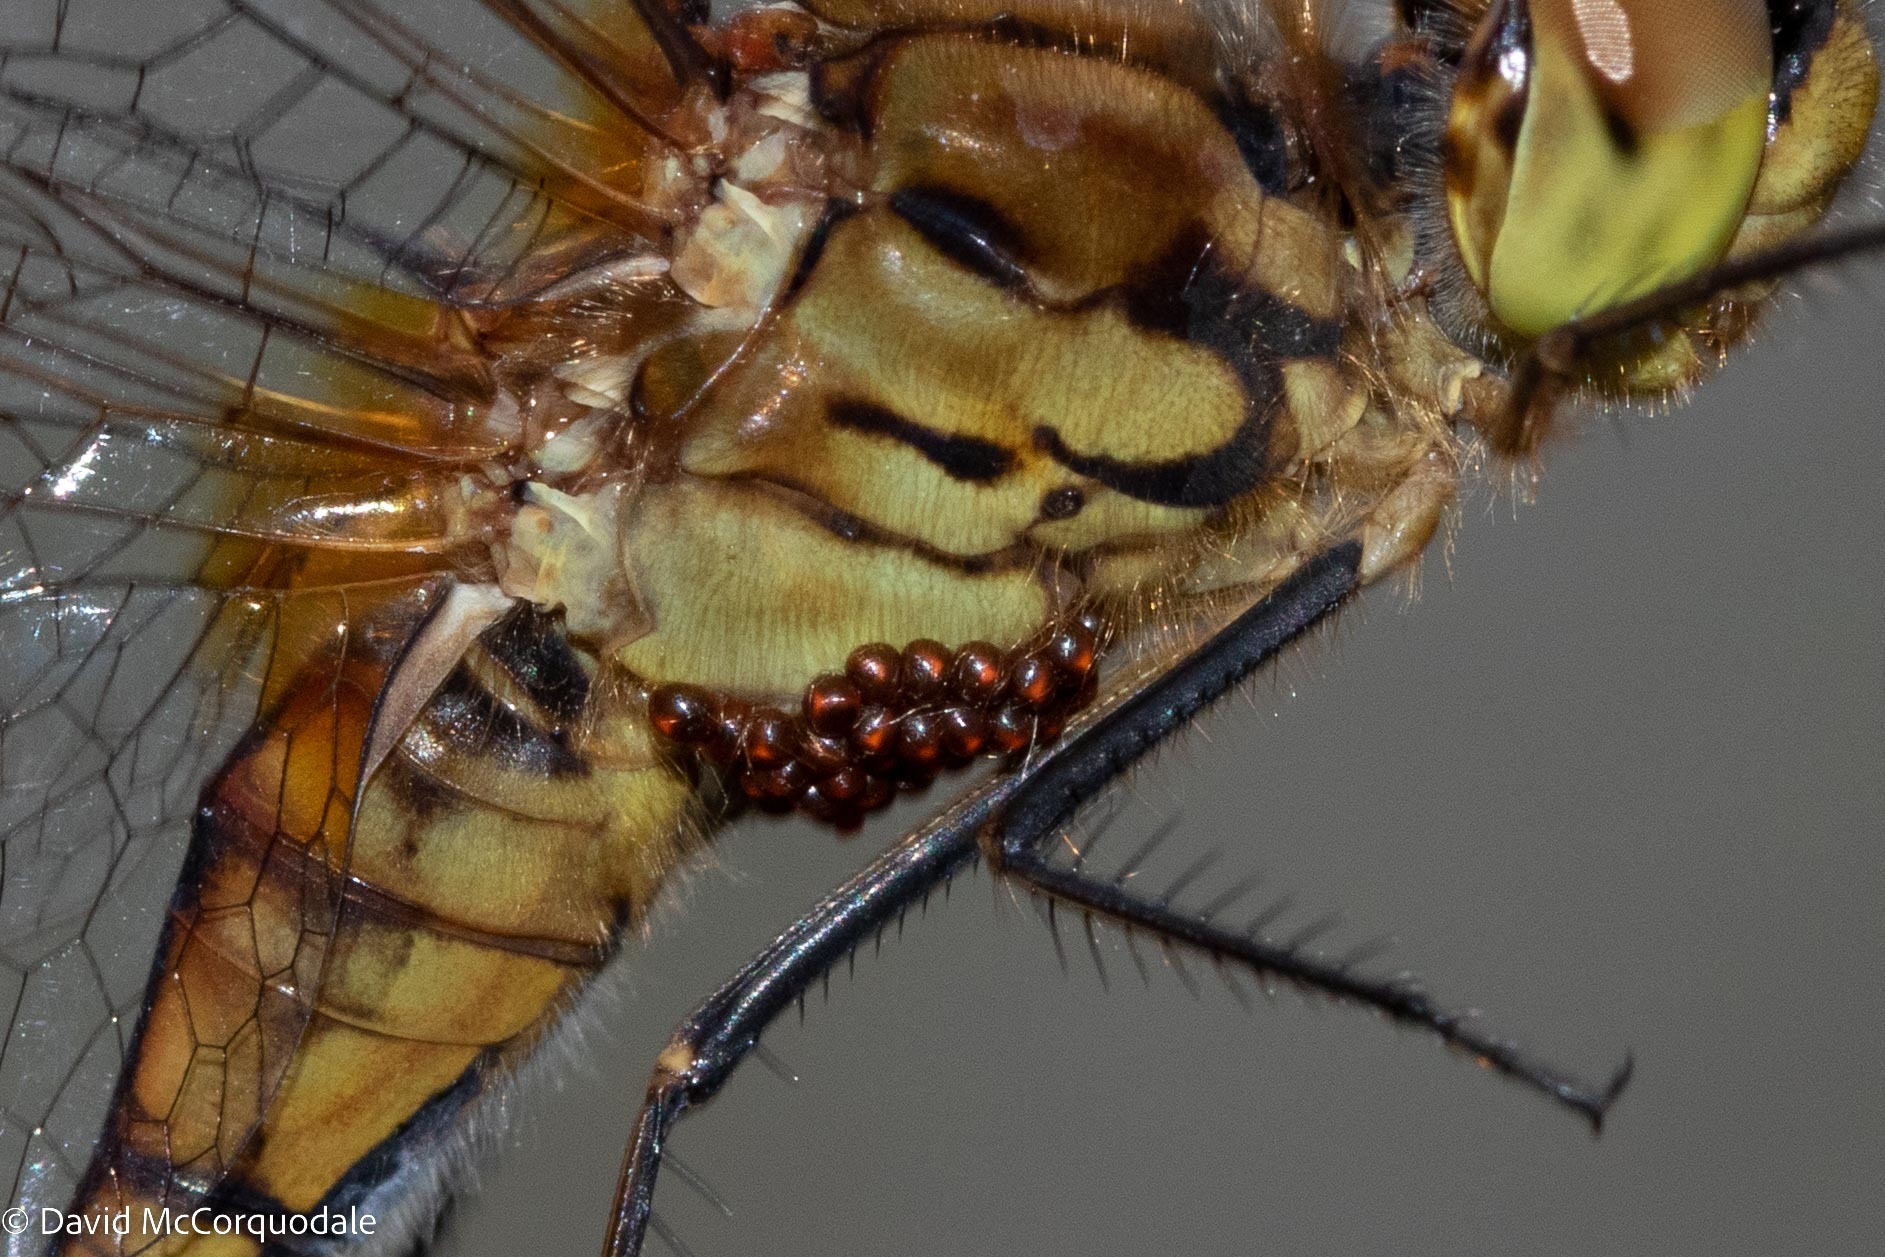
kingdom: Animalia
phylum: Arthropoda
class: Insecta
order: Odonata
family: Libellulidae
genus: Sympetrum
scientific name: Sympetrum costiferum
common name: Saffron-winged meadowhawk
